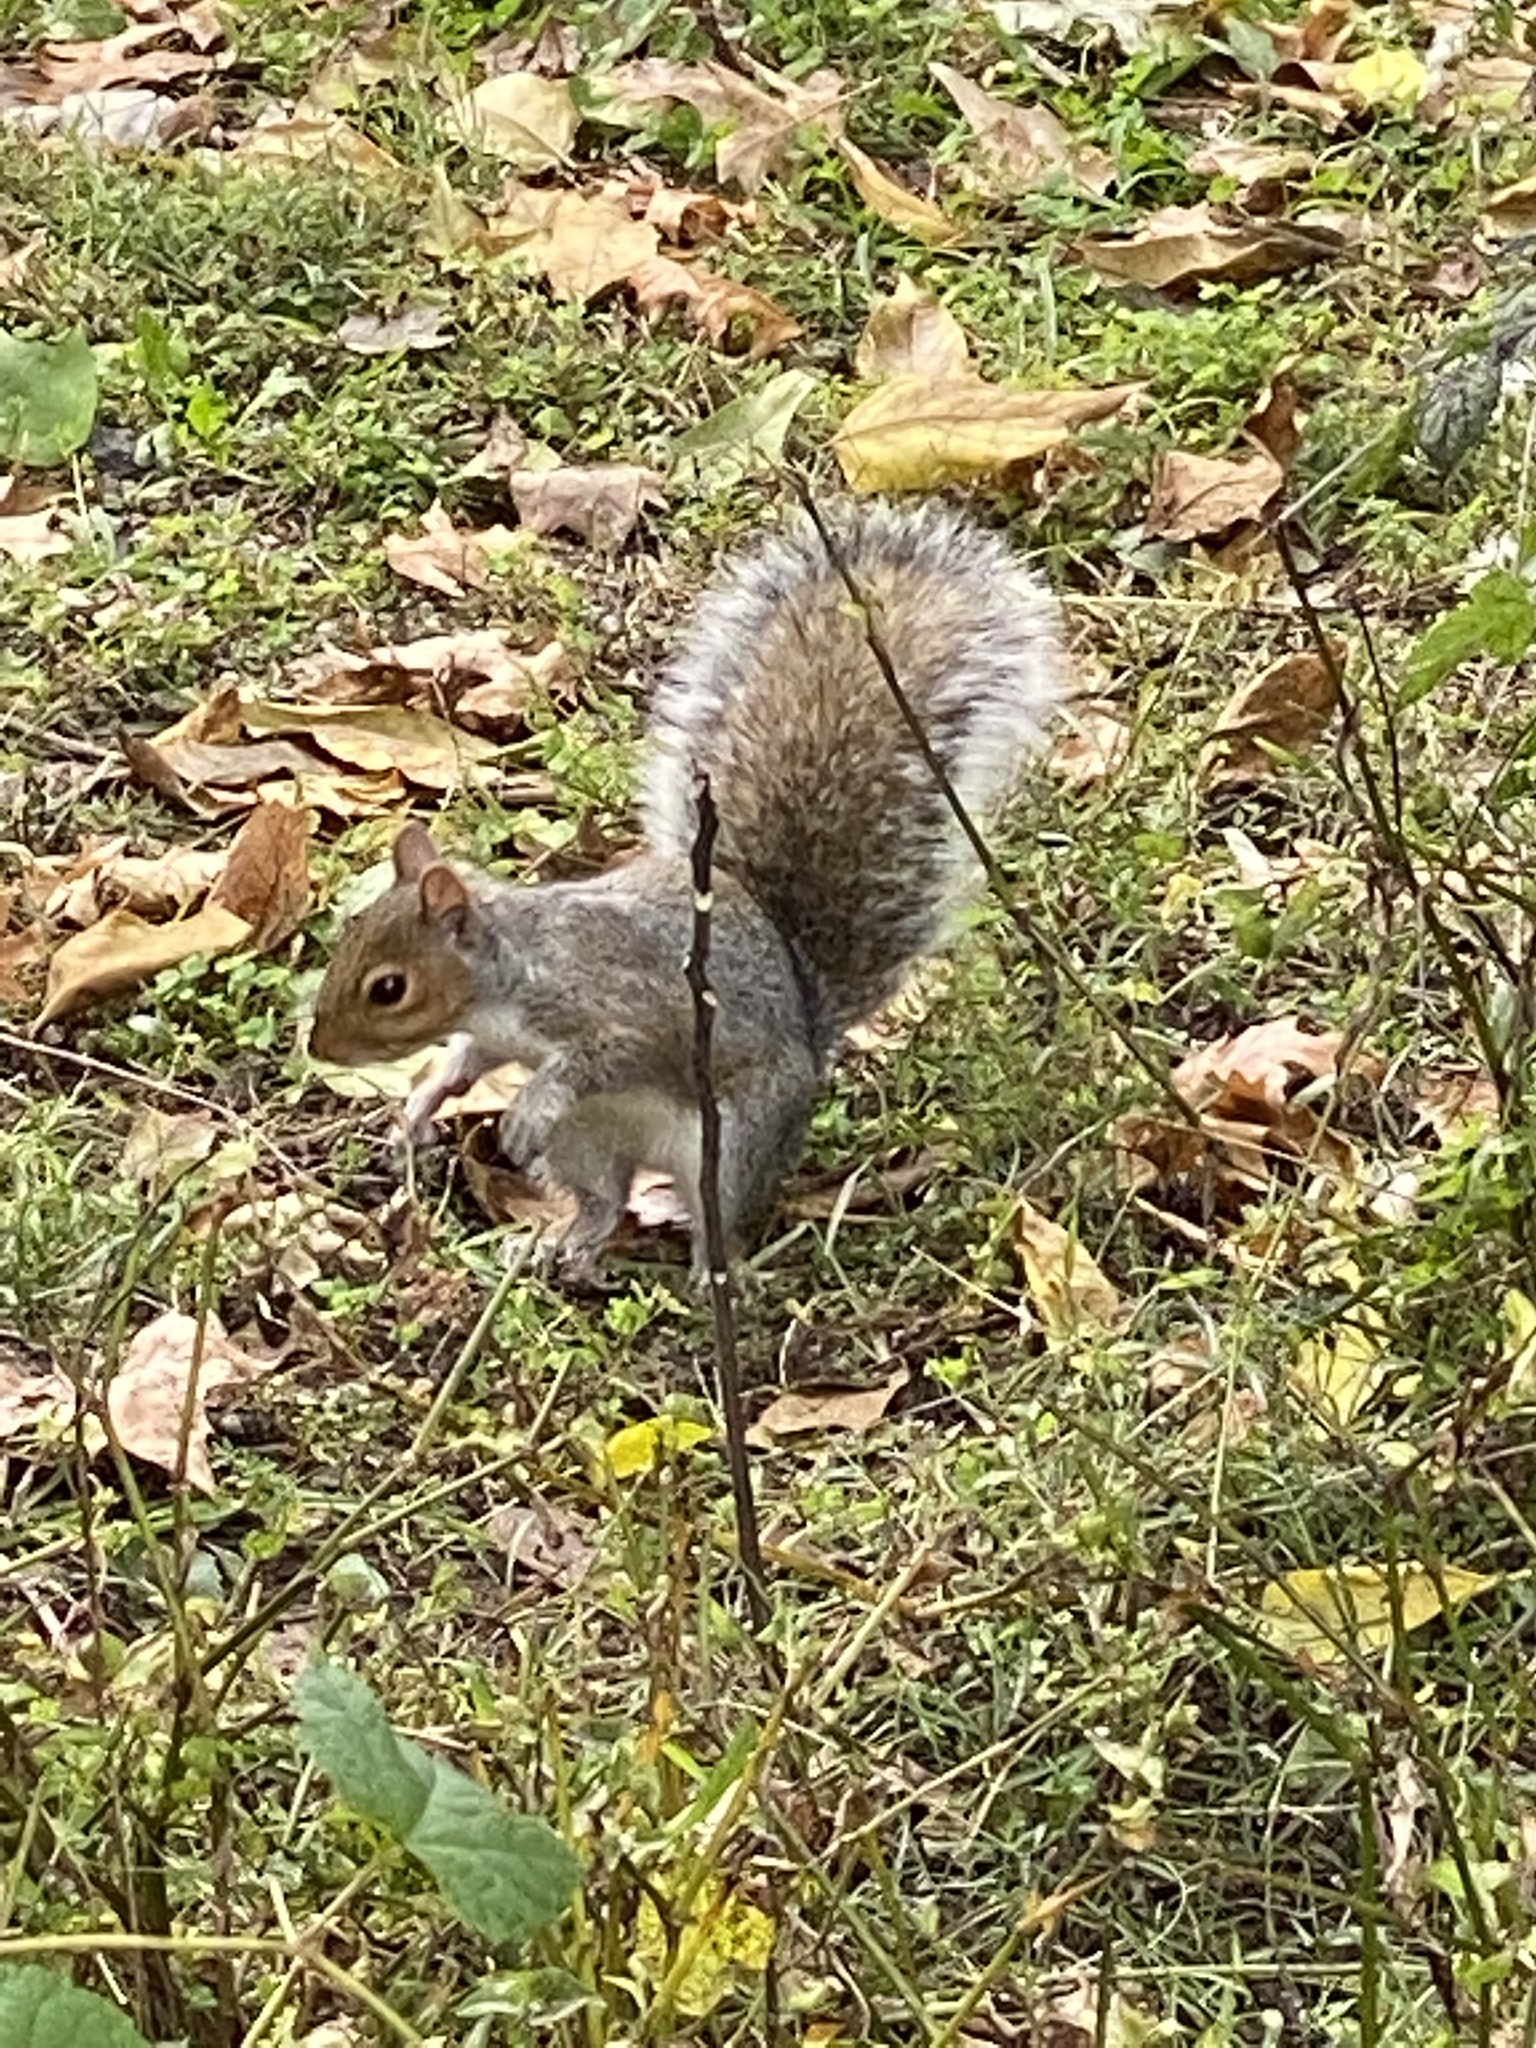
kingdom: Animalia
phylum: Chordata
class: Mammalia
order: Rodentia
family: Sciuridae
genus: Sciurus
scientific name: Sciurus carolinensis
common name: Eastern gray squirrel
